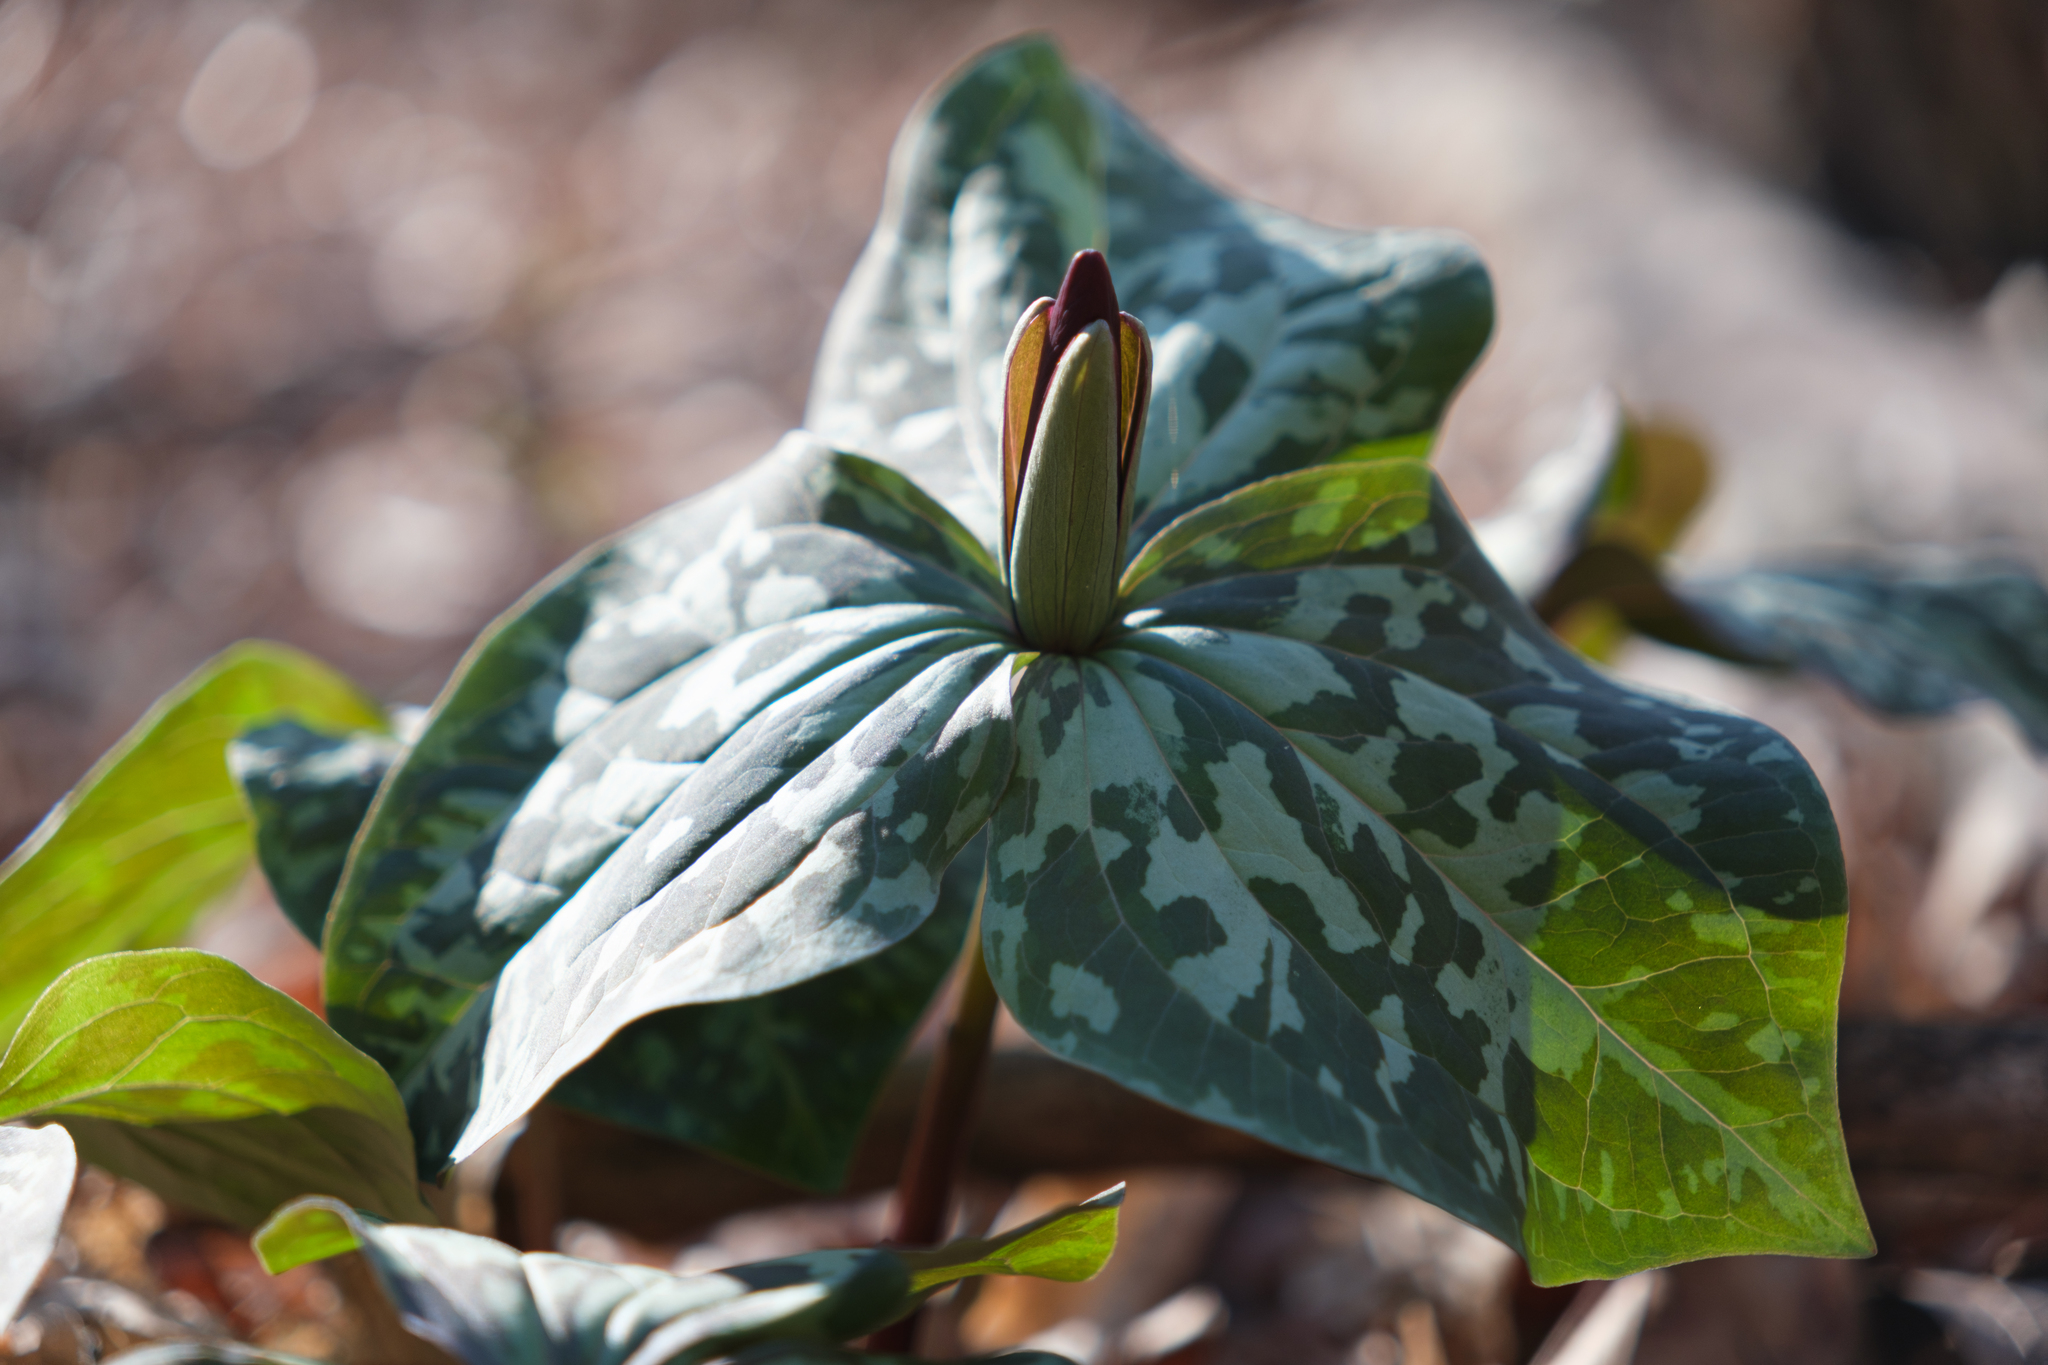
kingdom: Plantae
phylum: Tracheophyta
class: Liliopsida
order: Liliales
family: Melanthiaceae
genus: Trillium
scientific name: Trillium cuneatum
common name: Cuneate trillium
